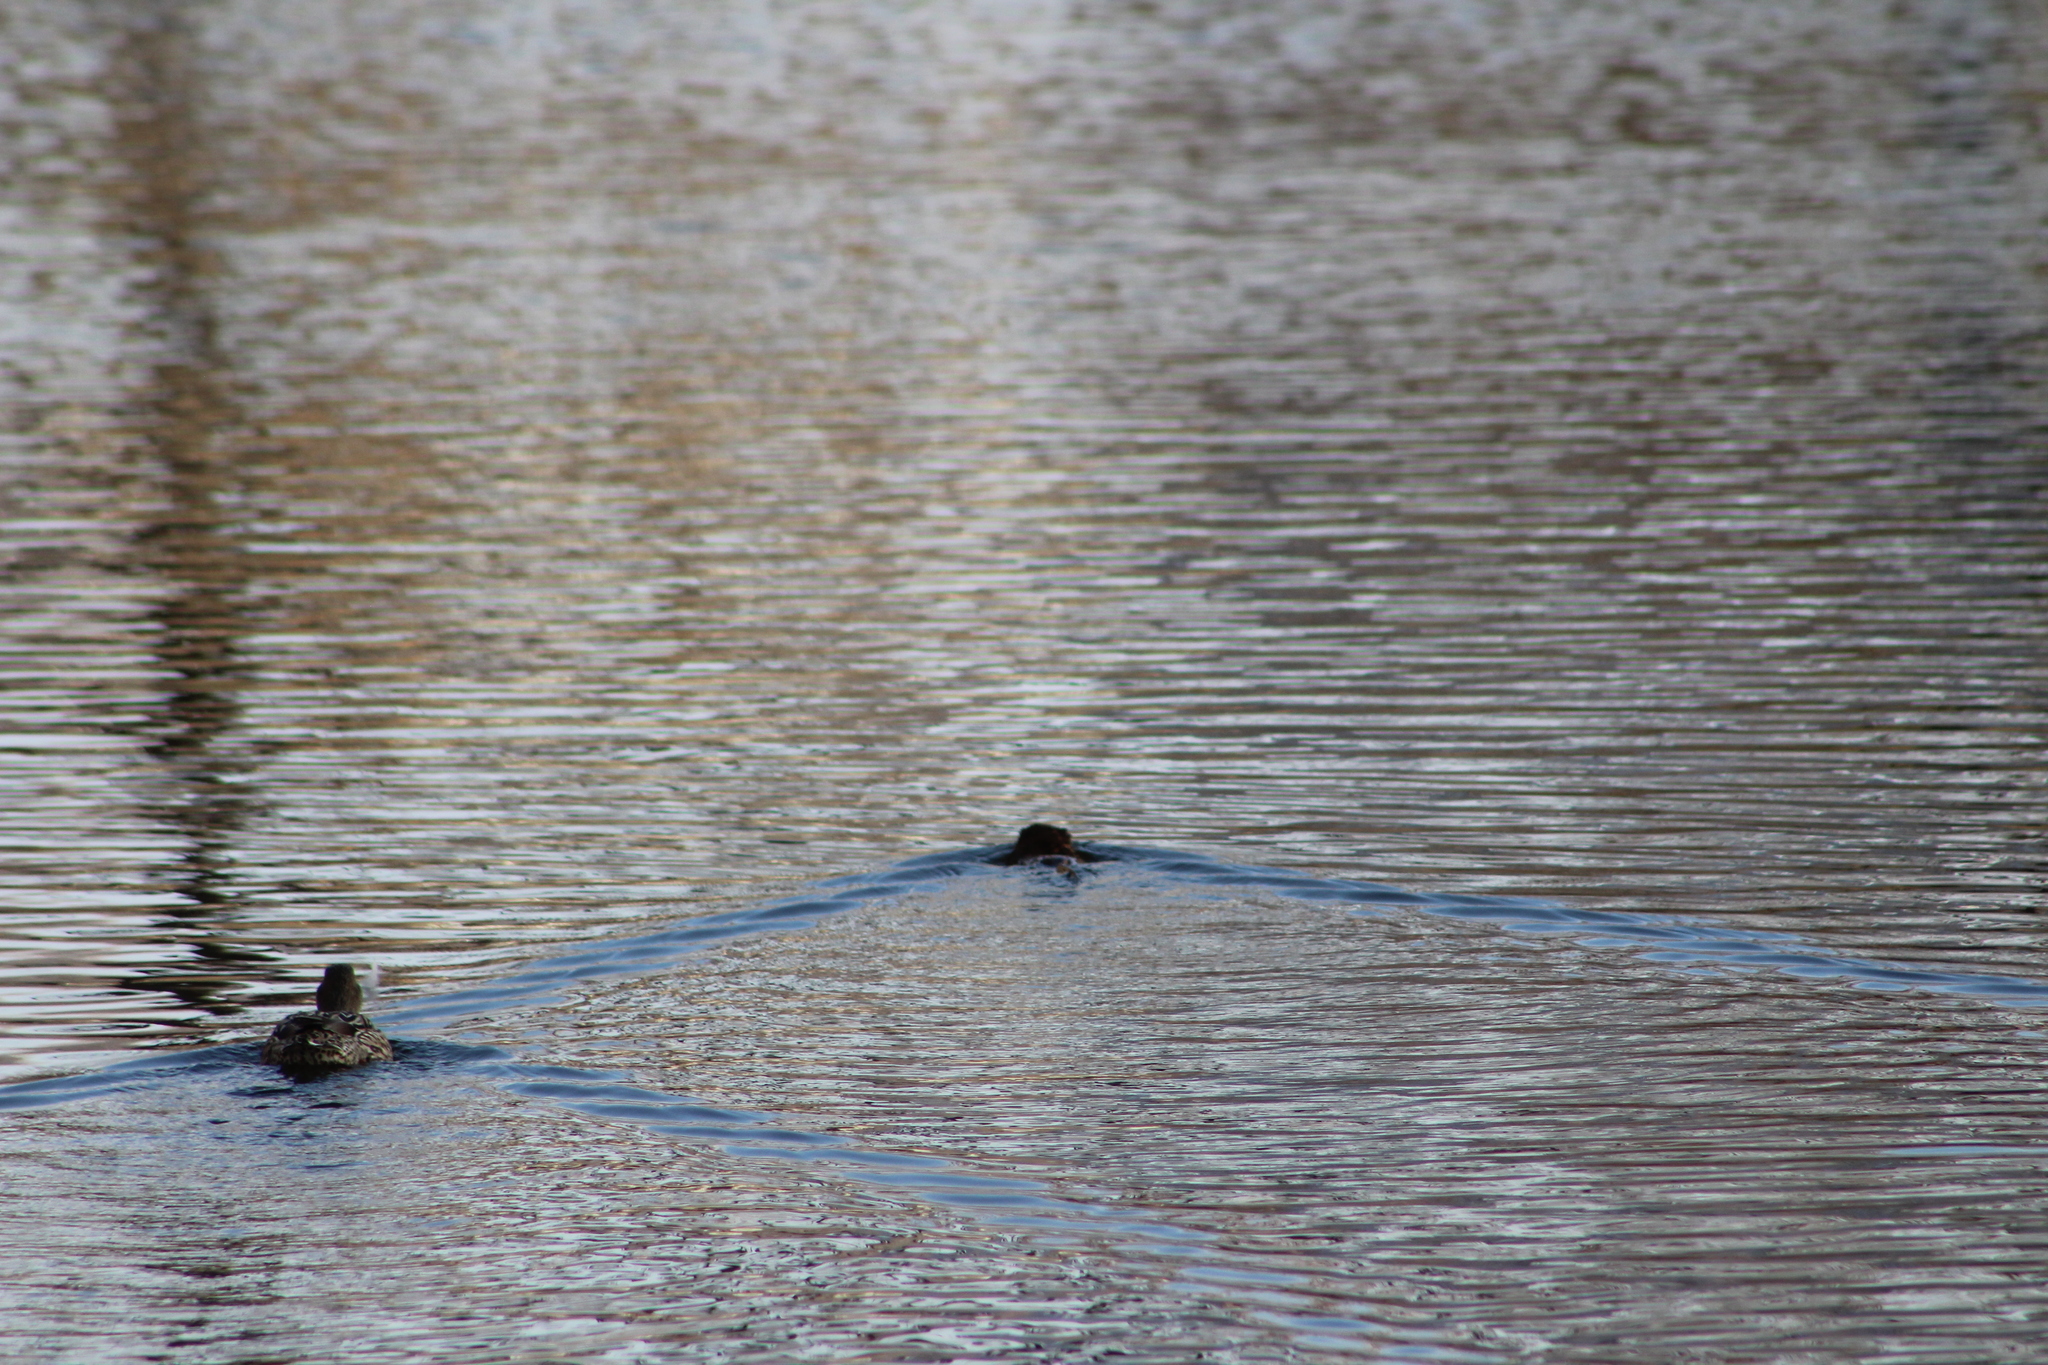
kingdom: Animalia
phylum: Chordata
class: Mammalia
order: Rodentia
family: Cricetidae
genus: Ondatra
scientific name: Ondatra zibethicus
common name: Muskrat
